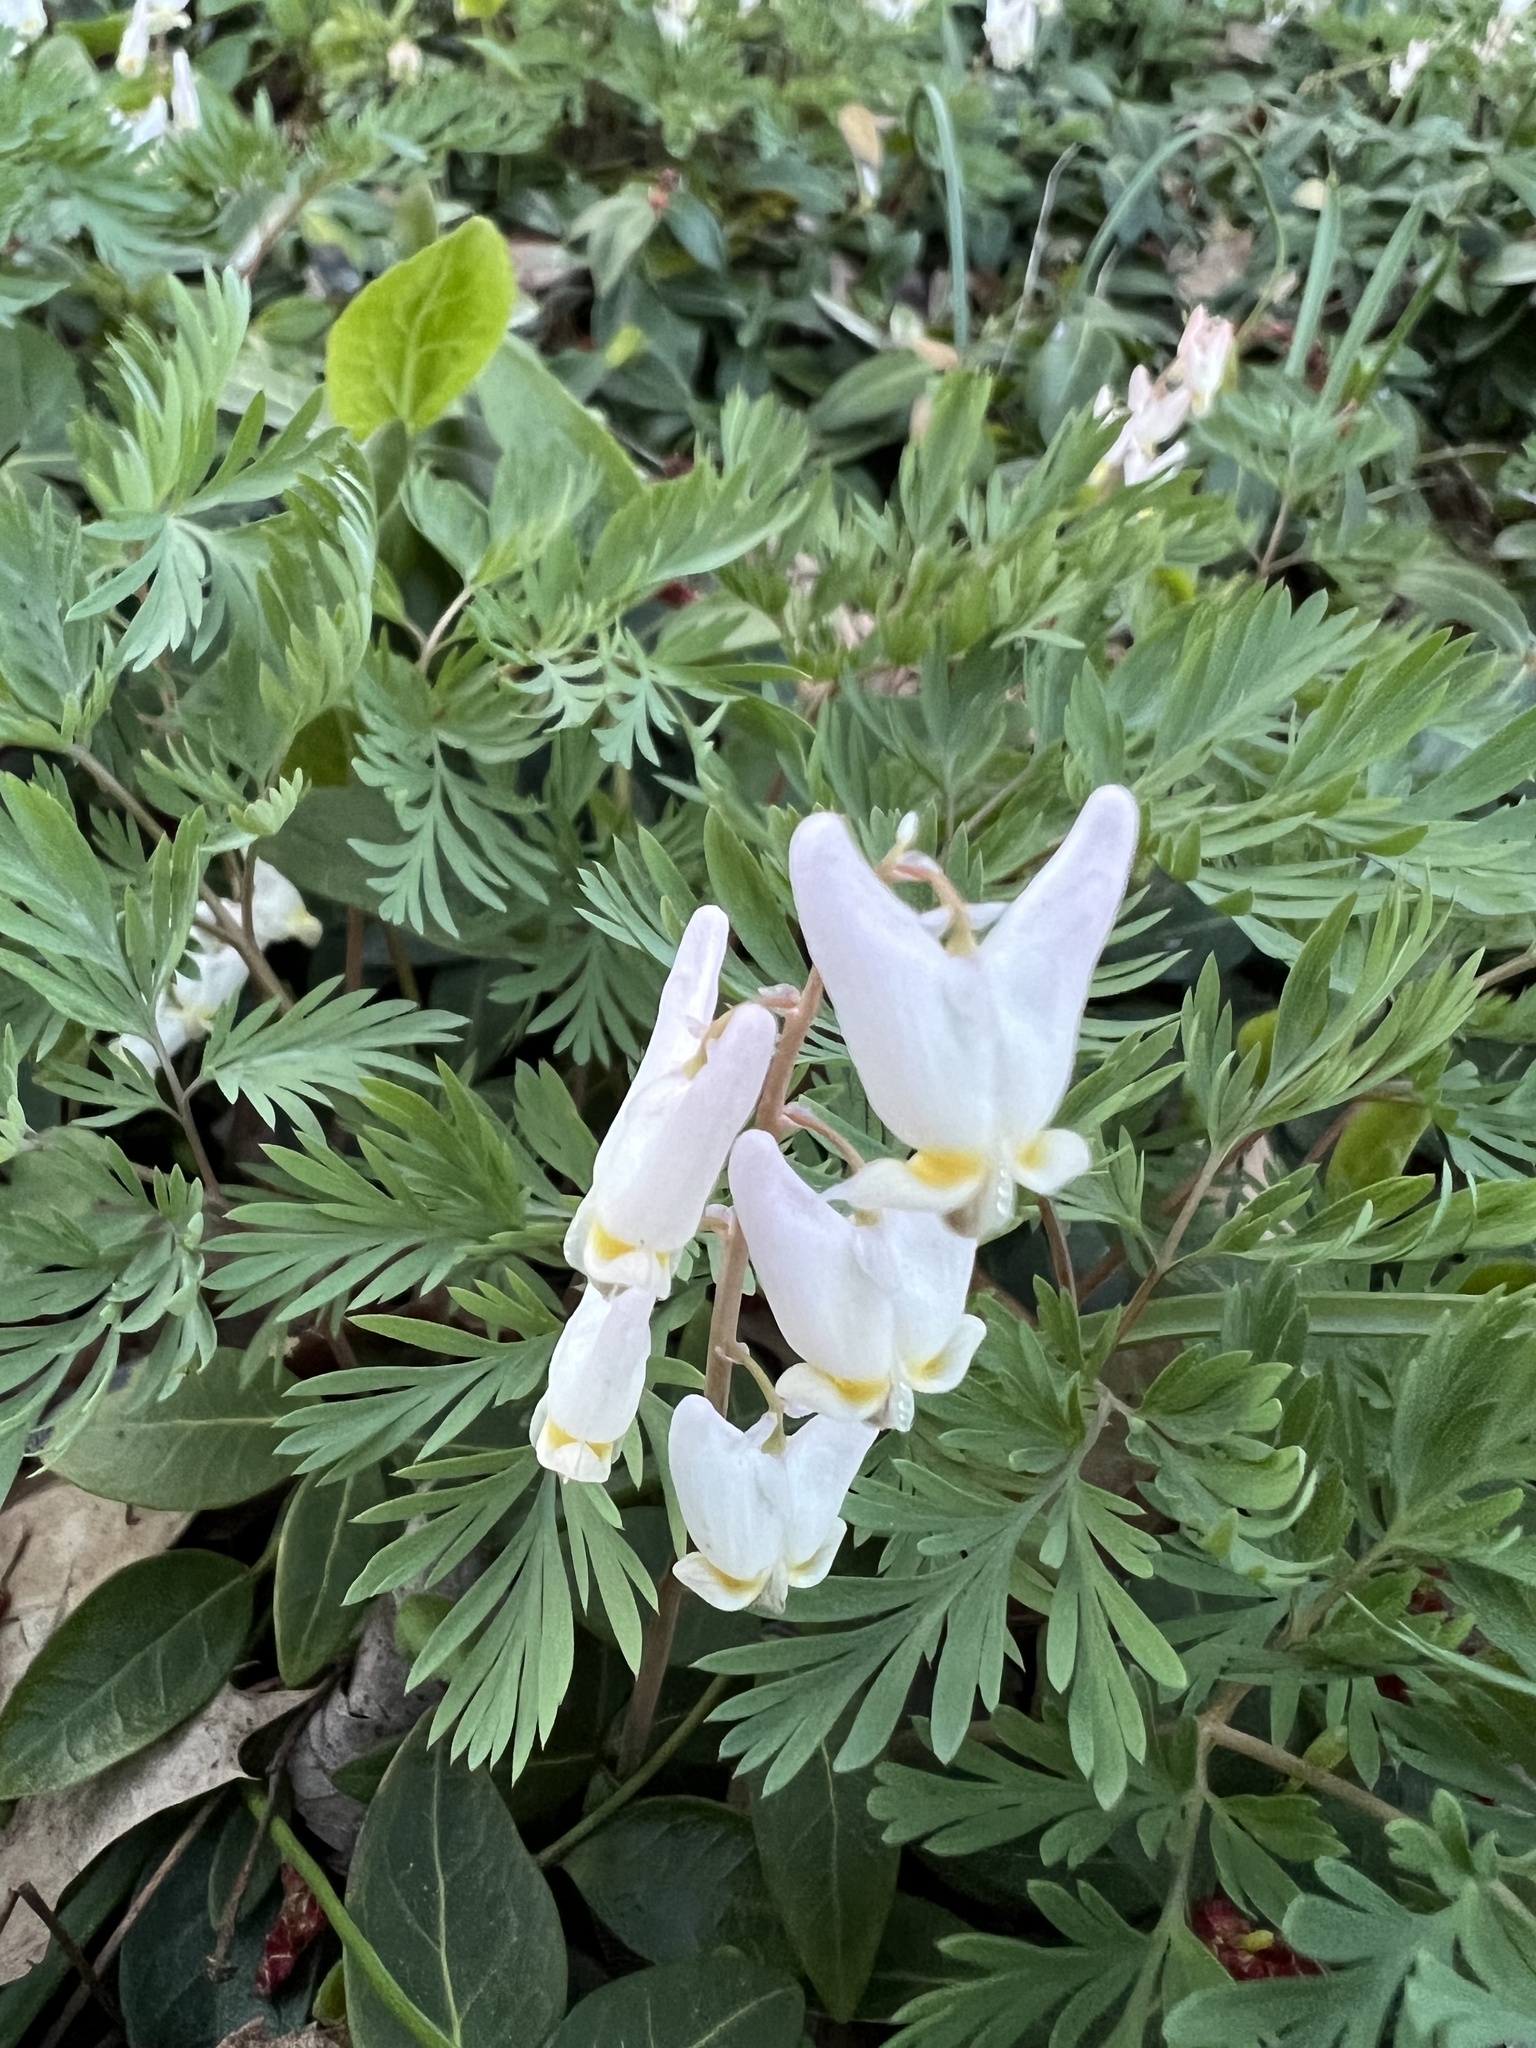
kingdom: Plantae
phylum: Tracheophyta
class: Magnoliopsida
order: Ranunculales
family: Papaveraceae
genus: Dicentra
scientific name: Dicentra cucullaria
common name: Dutchman's breeches
